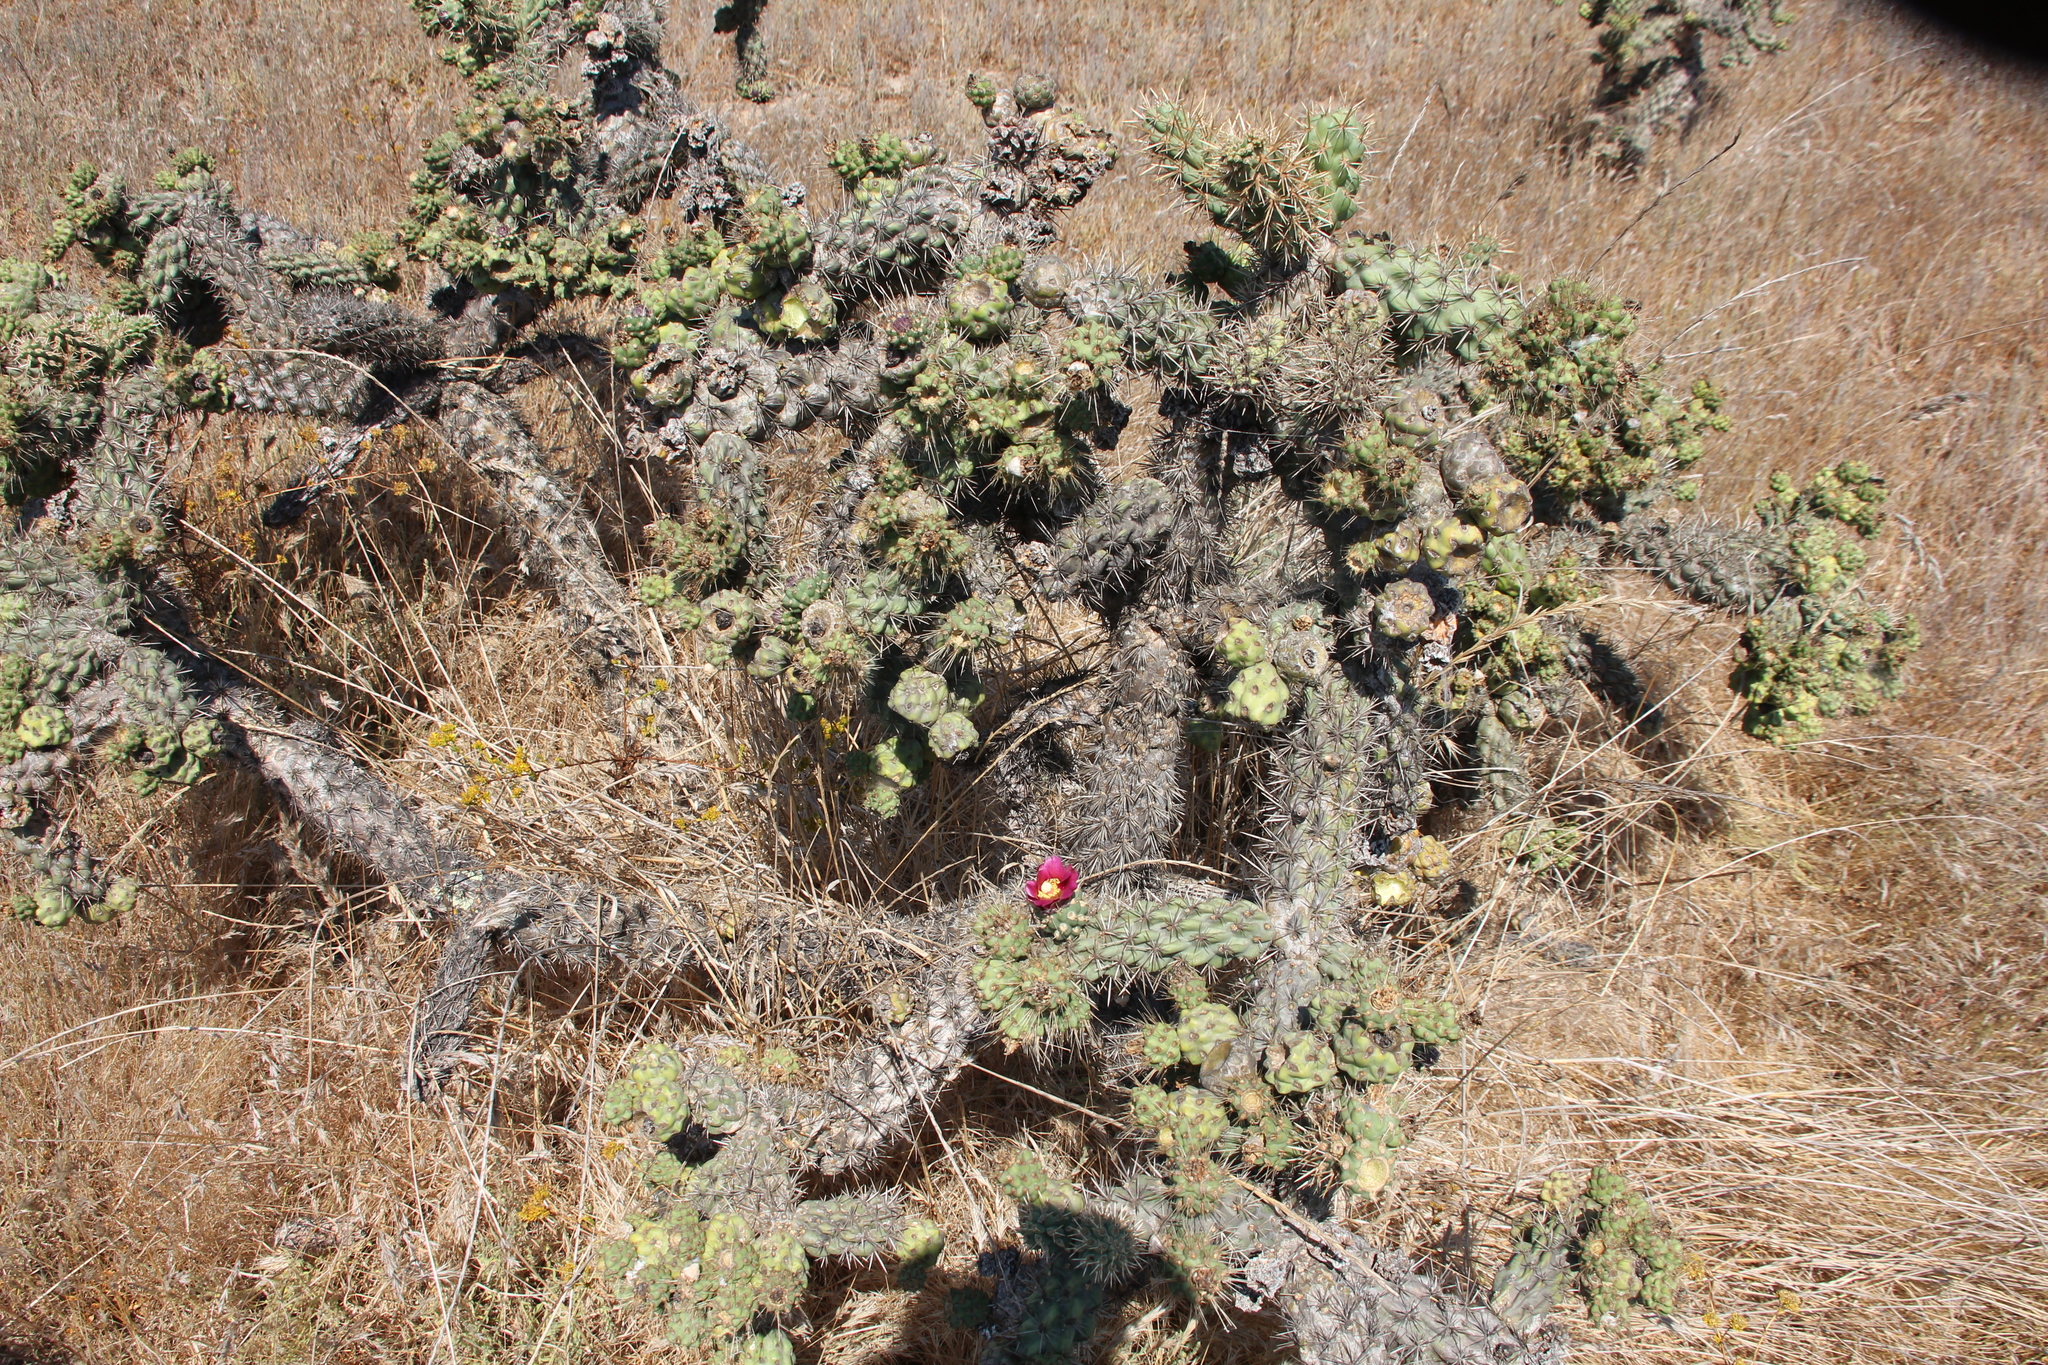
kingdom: Plantae
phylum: Tracheophyta
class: Magnoliopsida
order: Caryophyllales
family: Cactaceae
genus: Cylindropuntia
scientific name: Cylindropuntia prolifera
